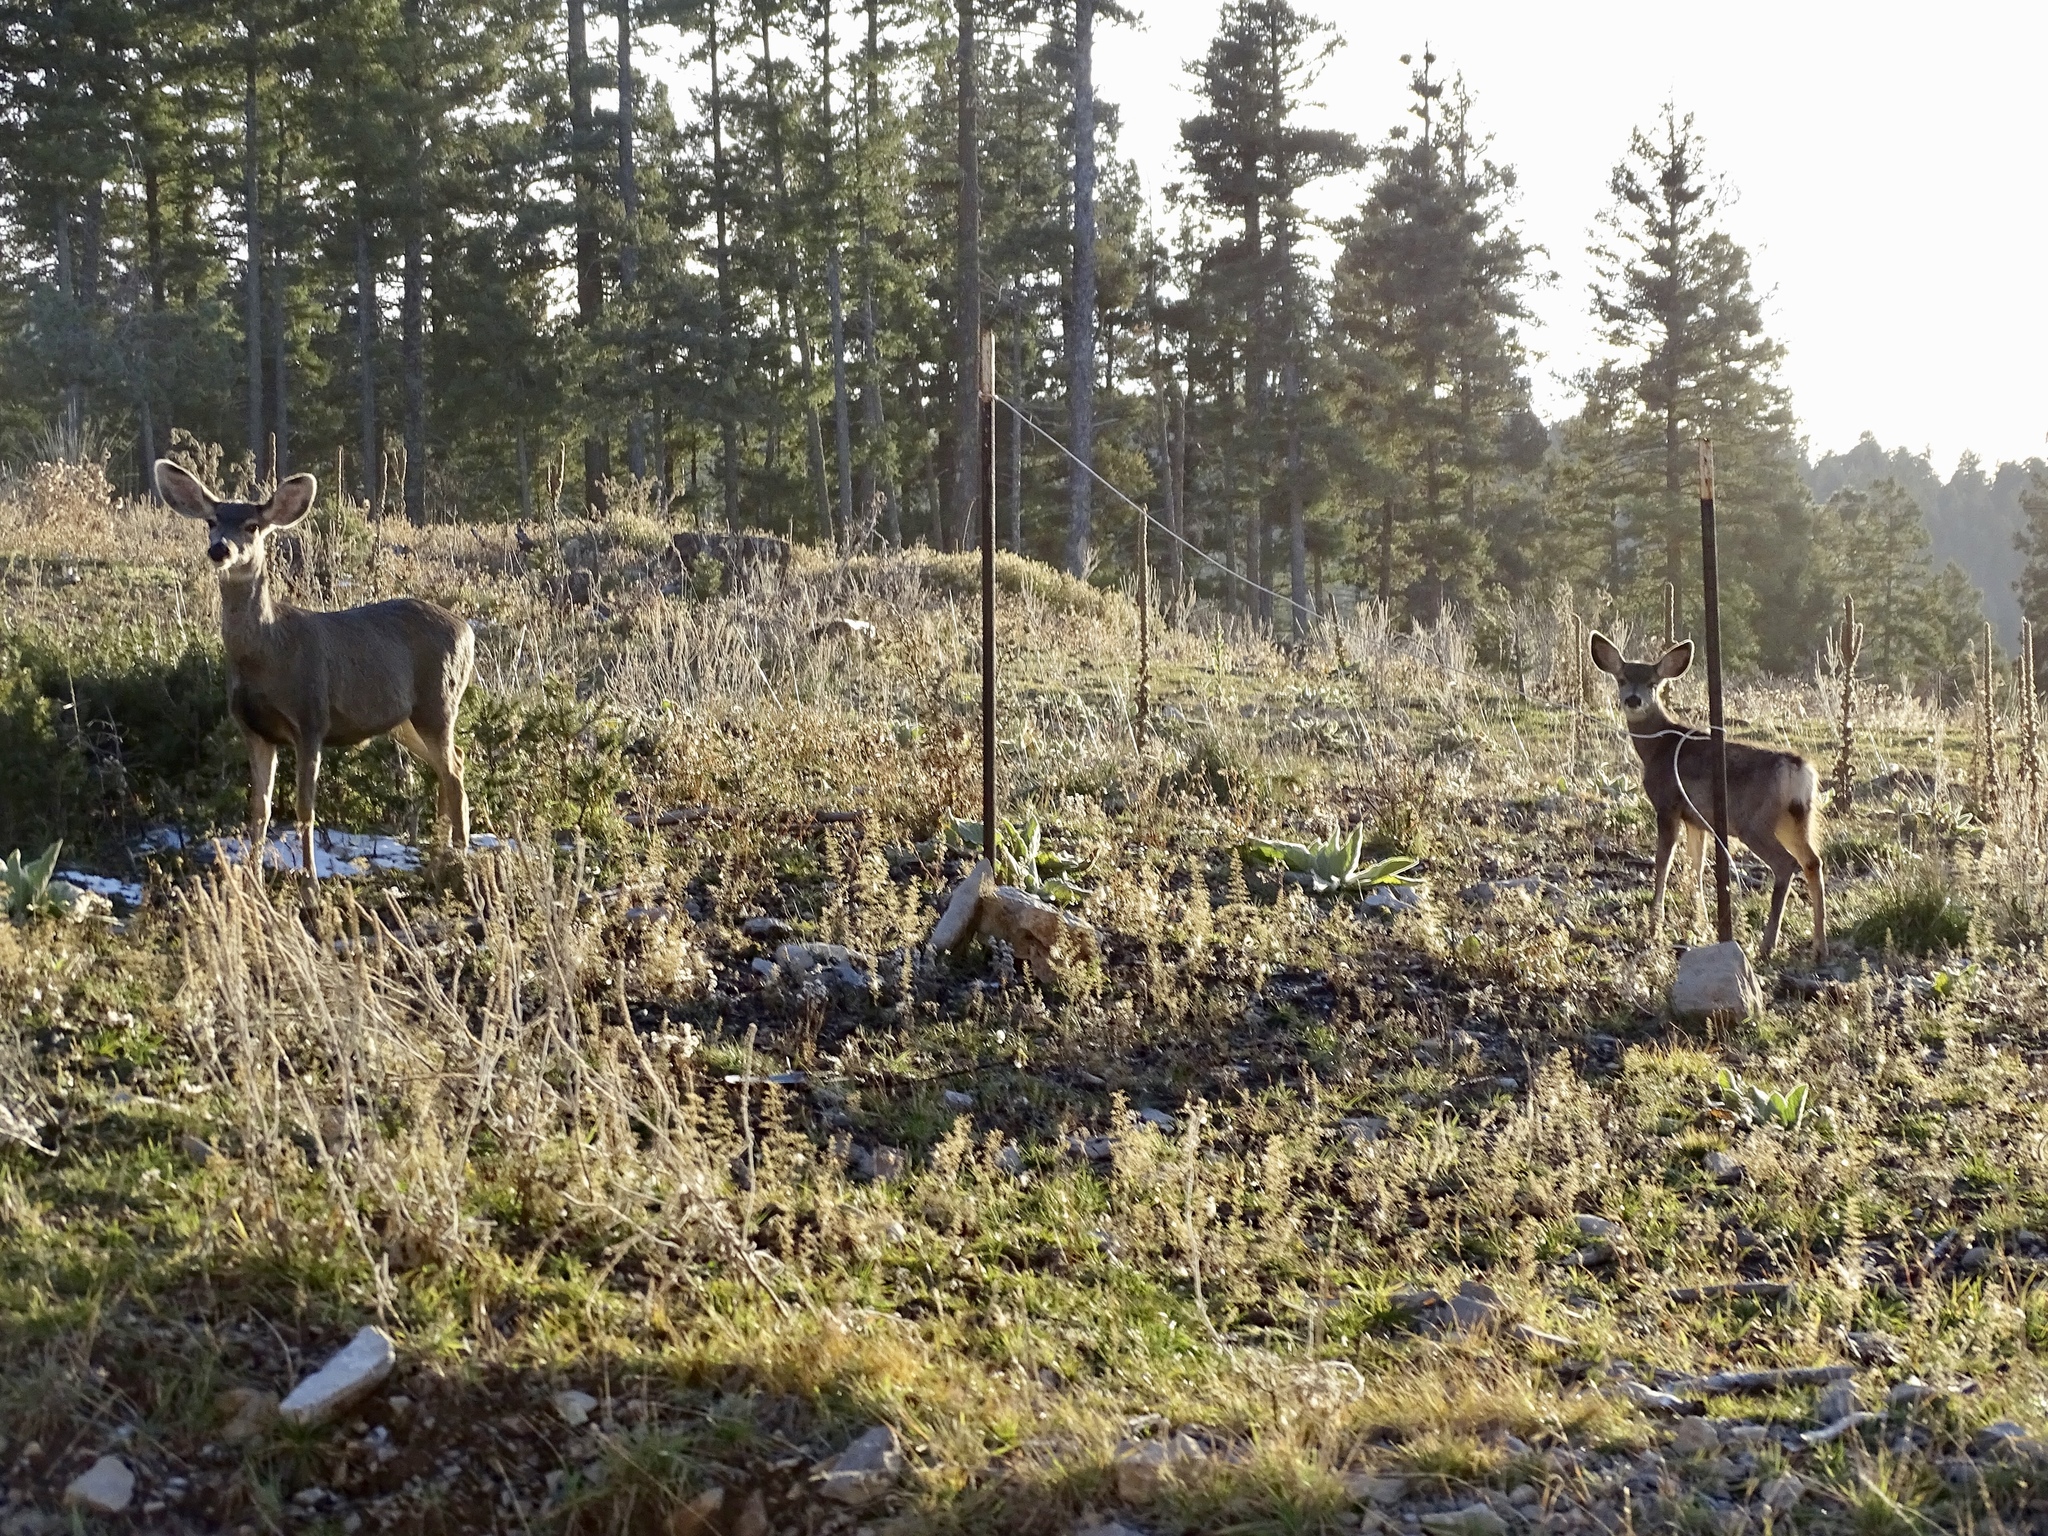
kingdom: Animalia
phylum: Chordata
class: Mammalia
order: Artiodactyla
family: Cervidae
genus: Odocoileus
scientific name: Odocoileus hemionus
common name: Mule deer
